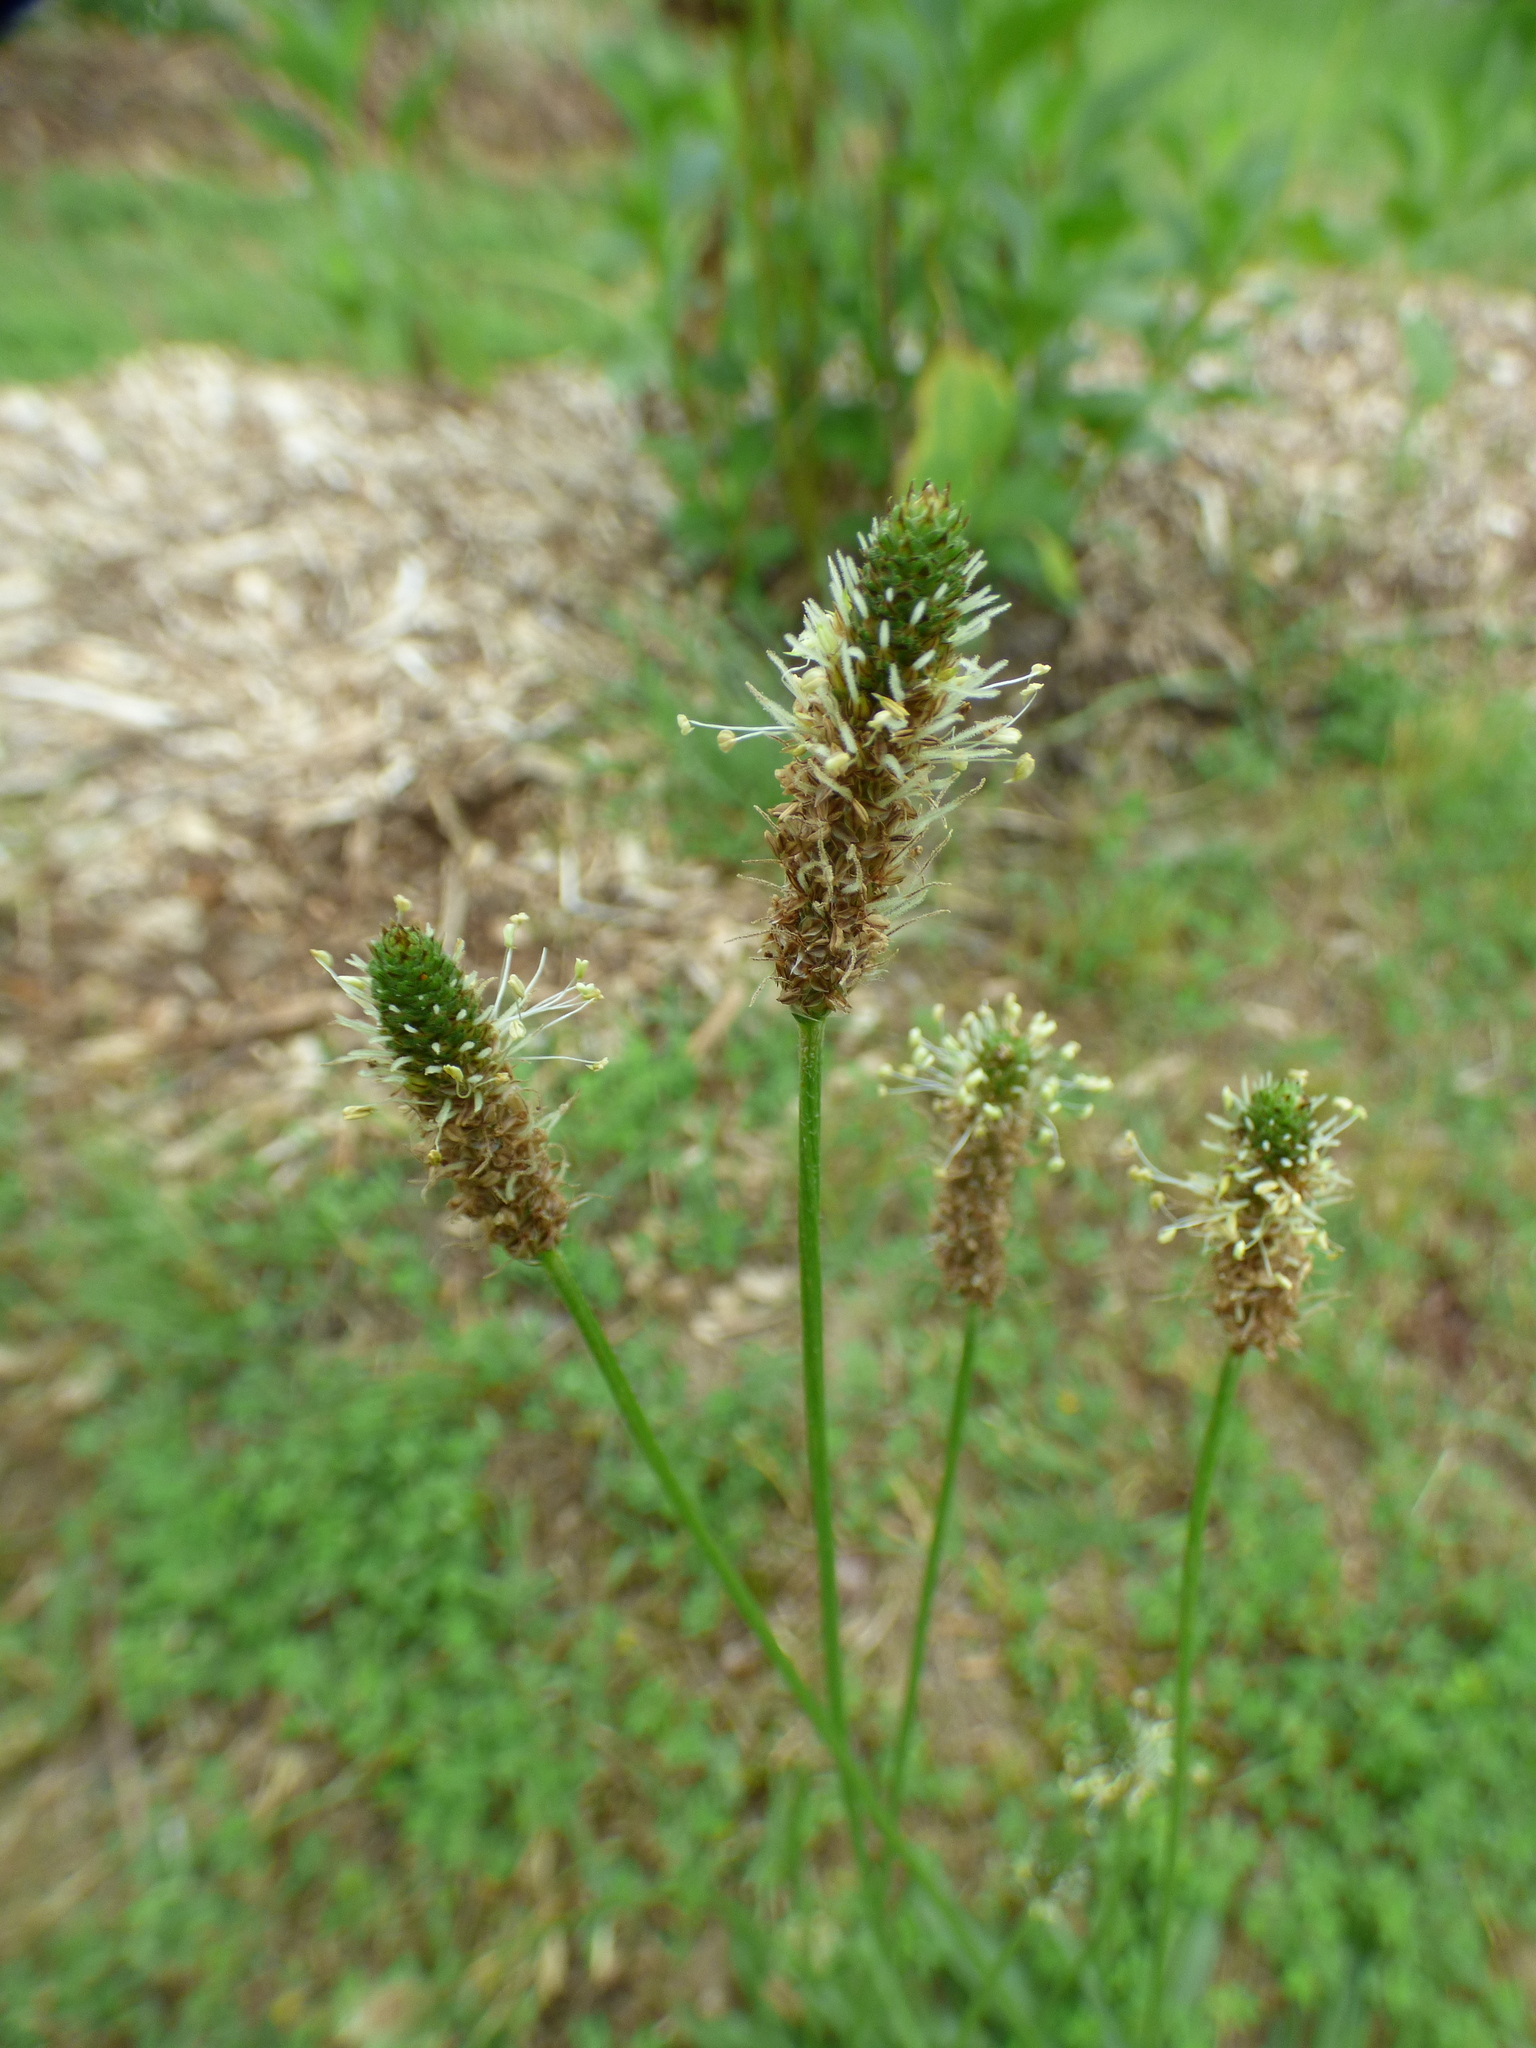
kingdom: Plantae
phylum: Tracheophyta
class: Magnoliopsida
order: Lamiales
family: Plantaginaceae
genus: Plantago
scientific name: Plantago lanceolata
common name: Ribwort plantain
